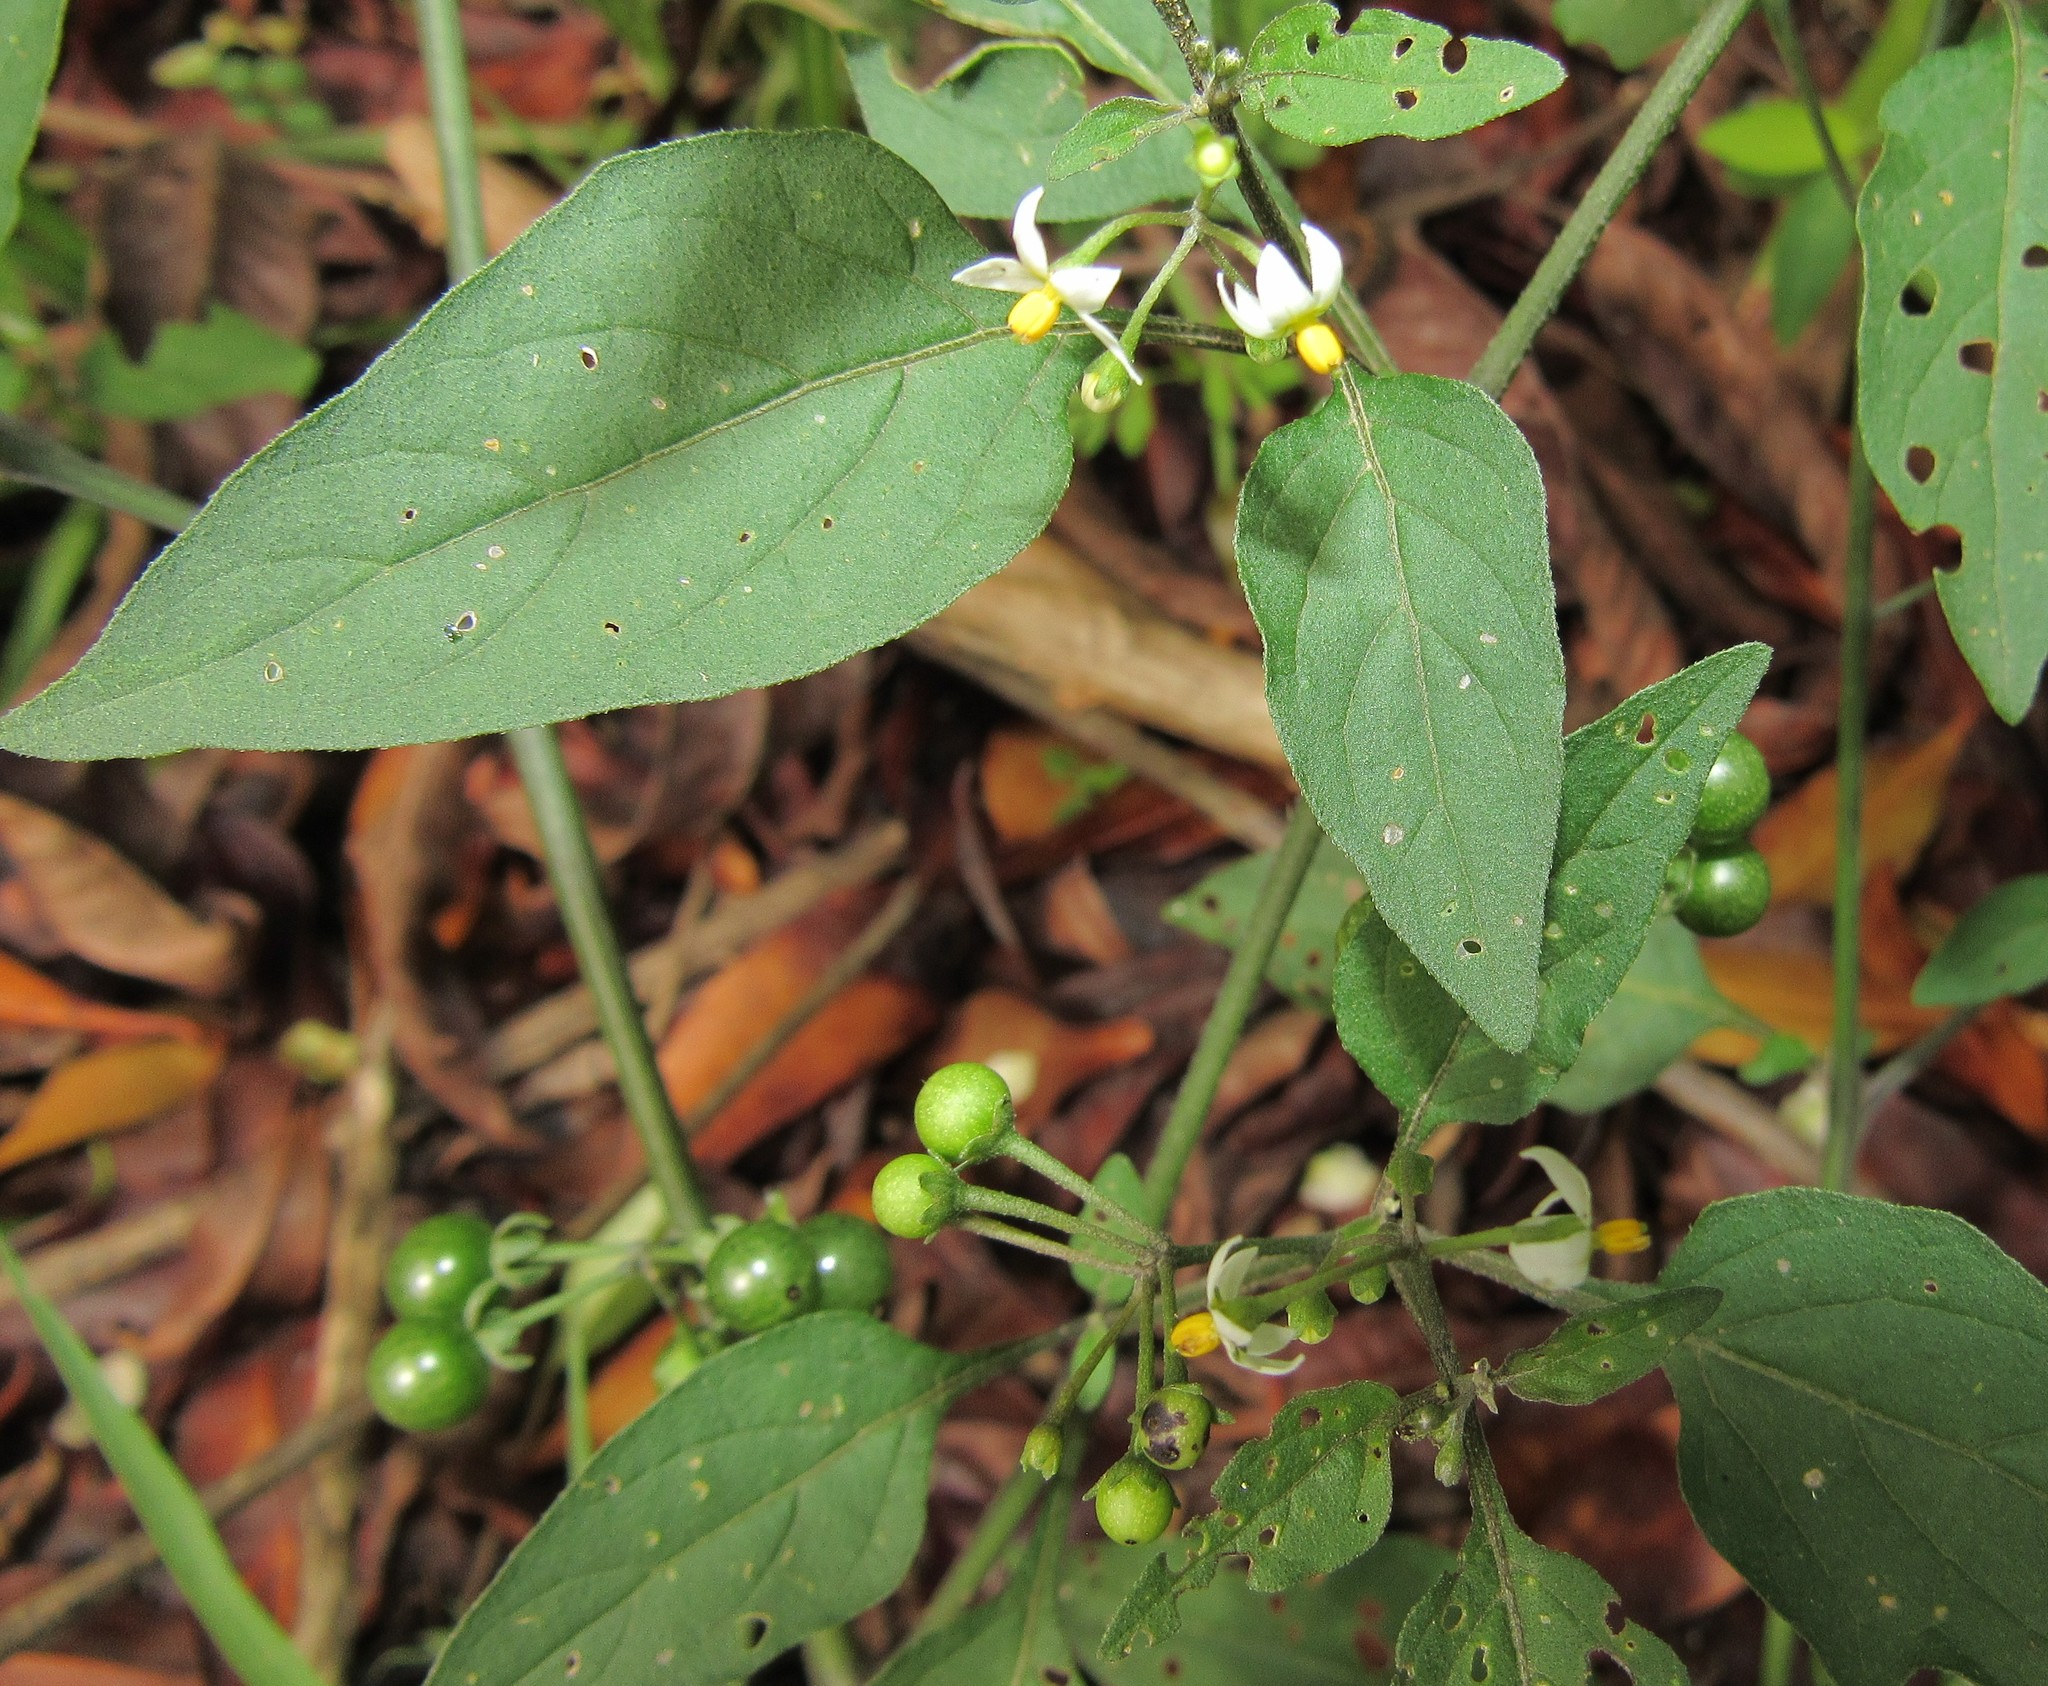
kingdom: Plantae
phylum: Tracheophyta
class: Magnoliopsida
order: Solanales
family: Solanaceae
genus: Solanum
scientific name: Solanum americanum
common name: American black nightshade
